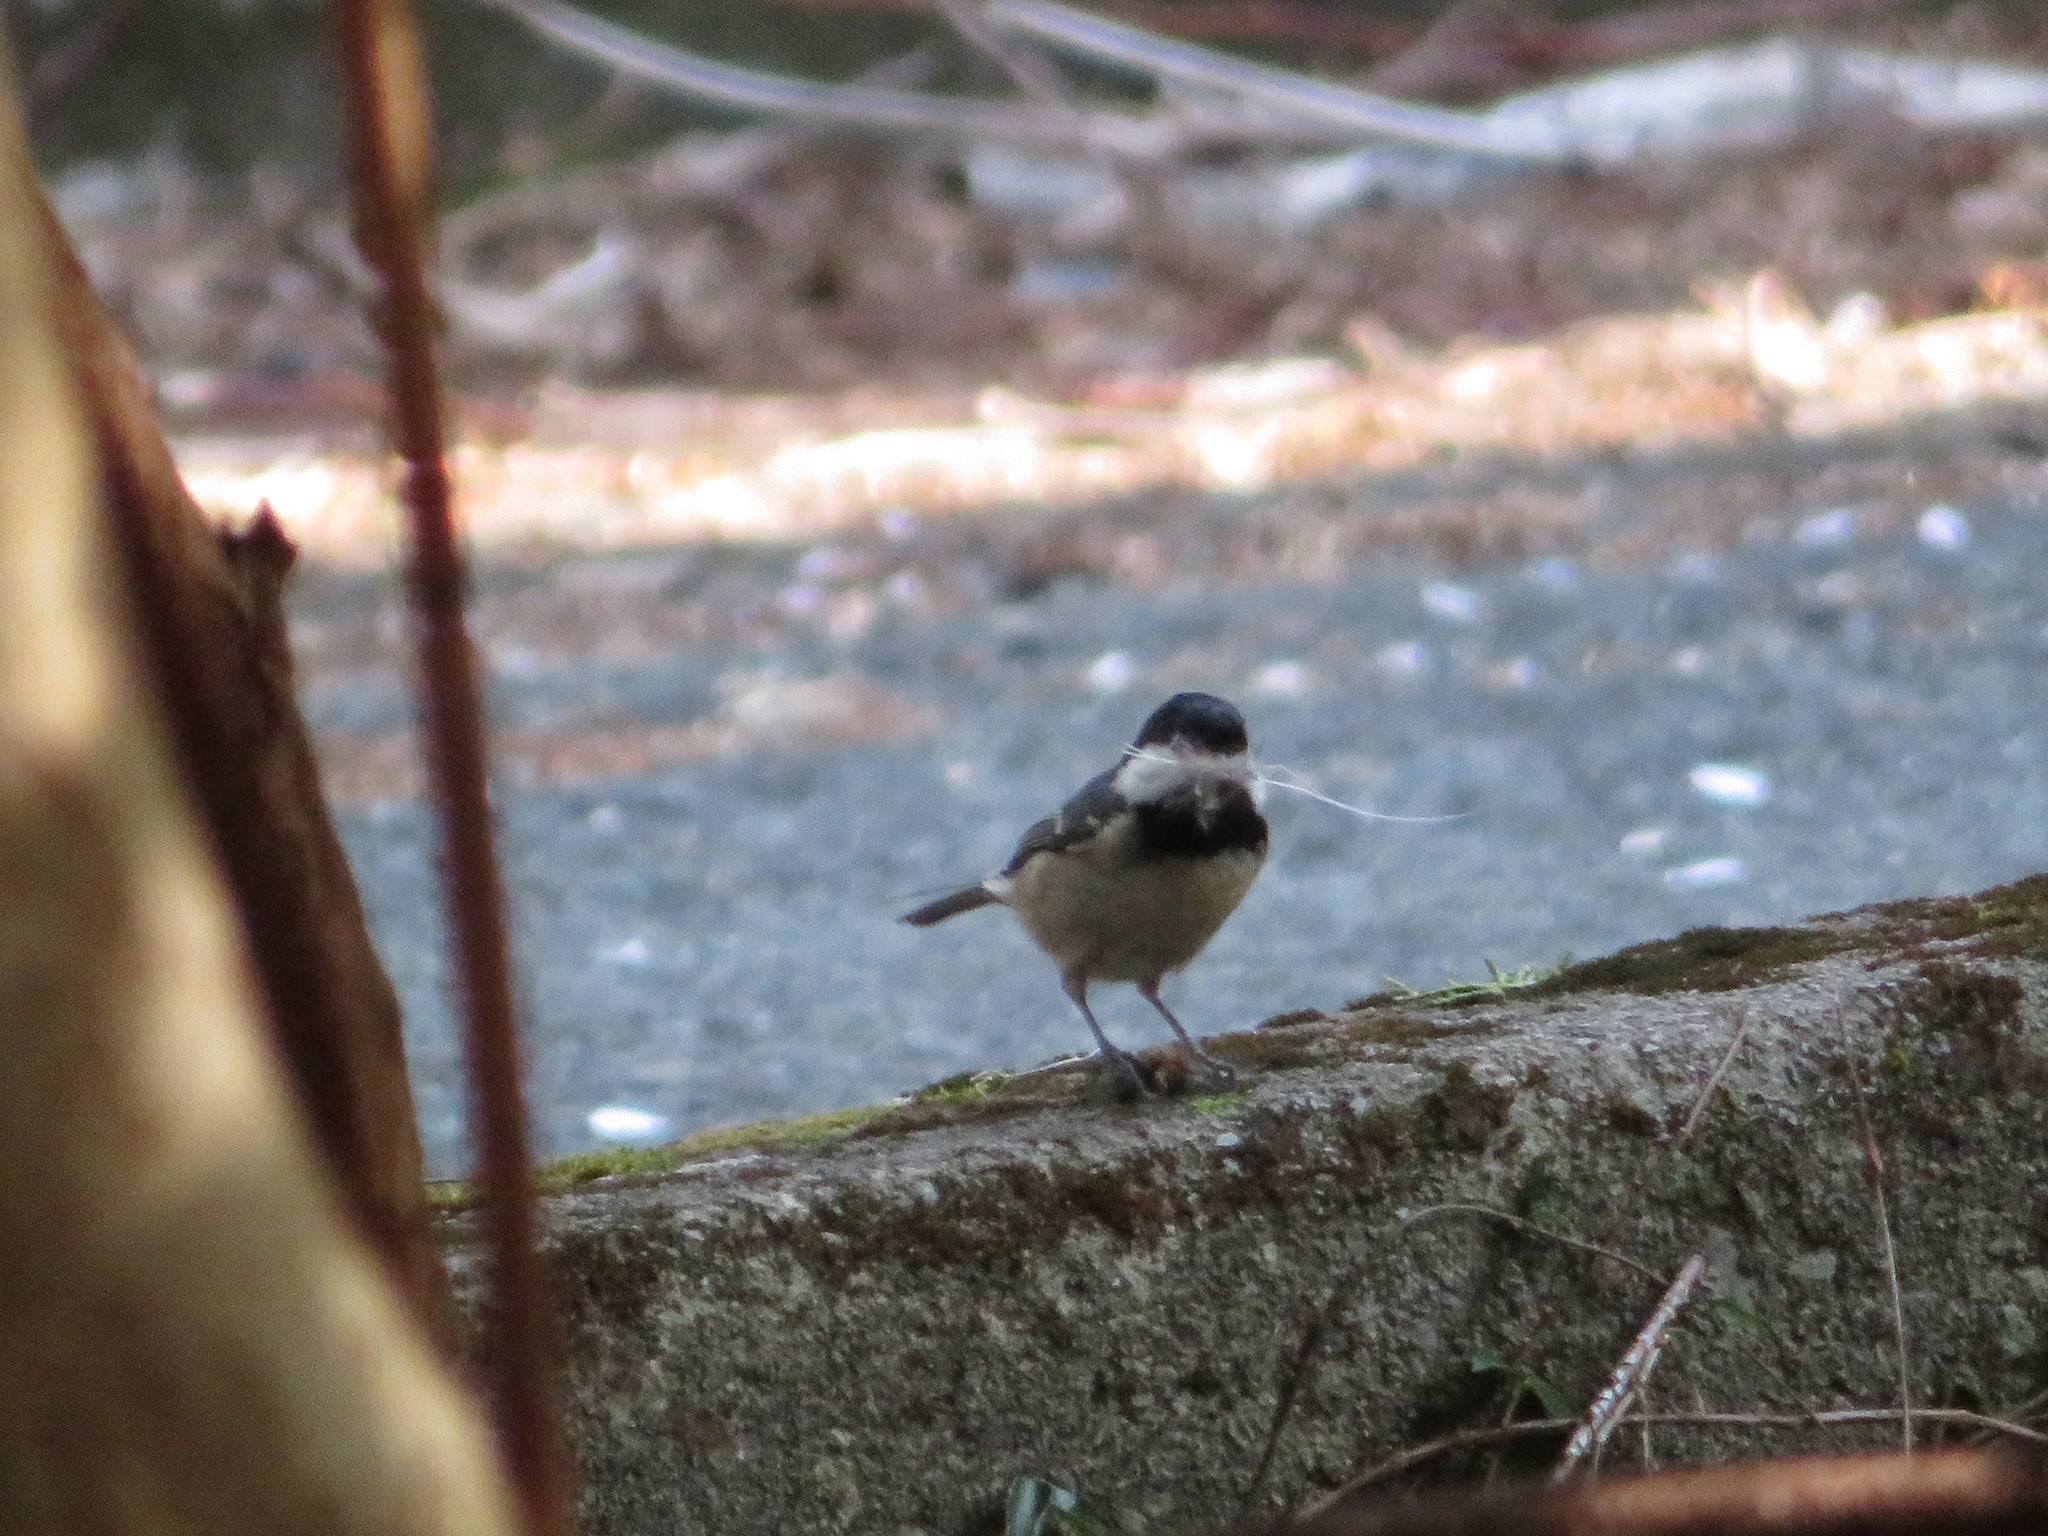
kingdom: Animalia
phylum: Chordata
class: Aves
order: Passeriformes
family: Paridae
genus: Periparus
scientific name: Periparus ater
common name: Coal tit
